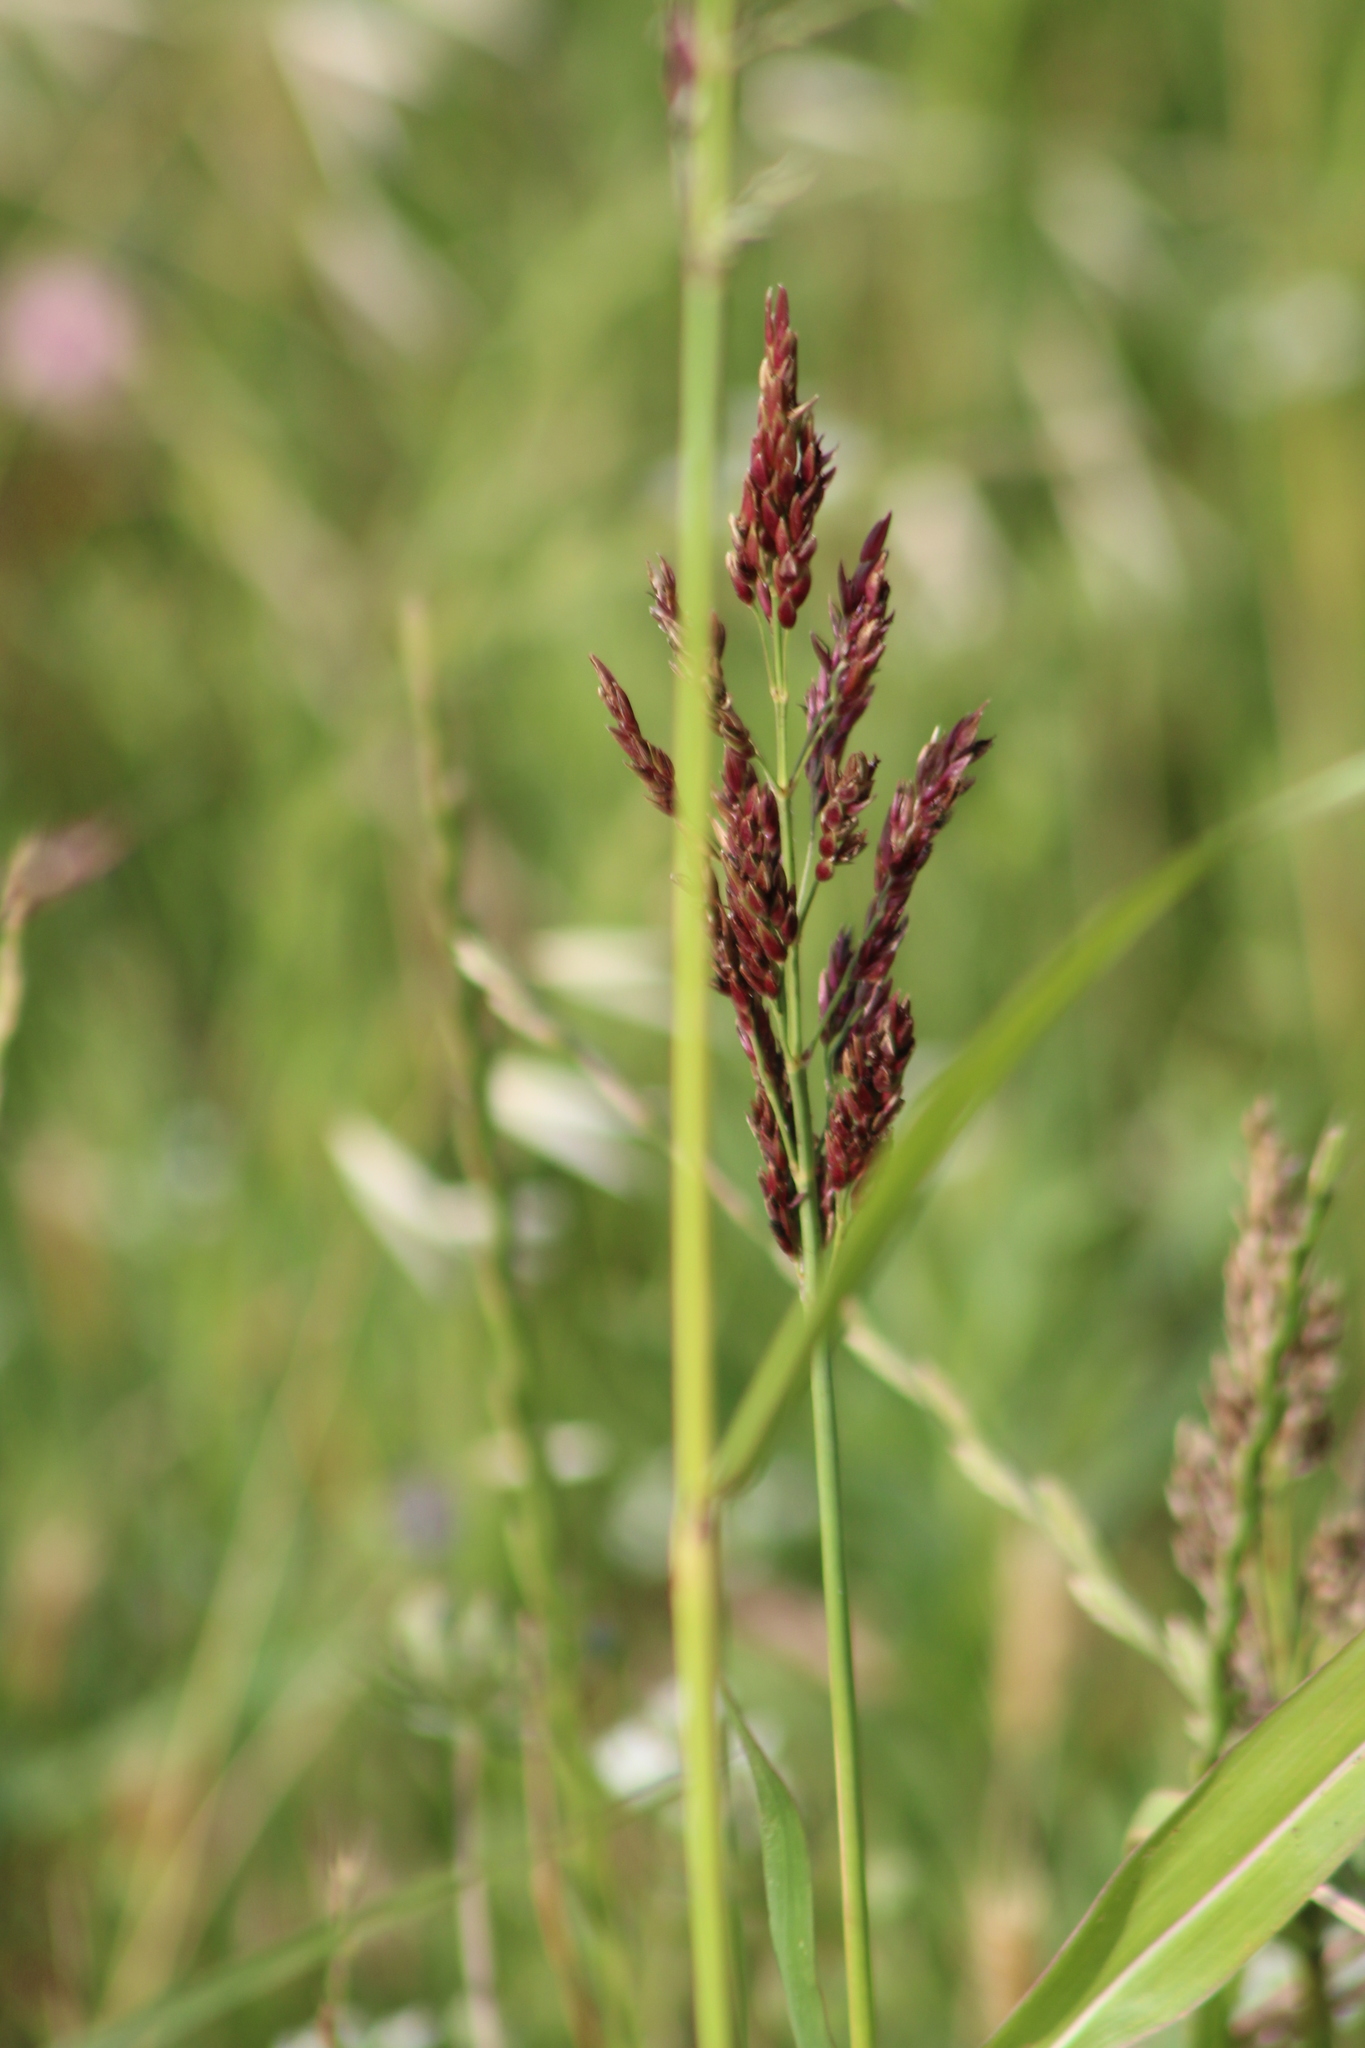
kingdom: Plantae
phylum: Tracheophyta
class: Liliopsida
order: Poales
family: Poaceae
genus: Sorghum
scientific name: Sorghum halepense
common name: Johnson-grass
